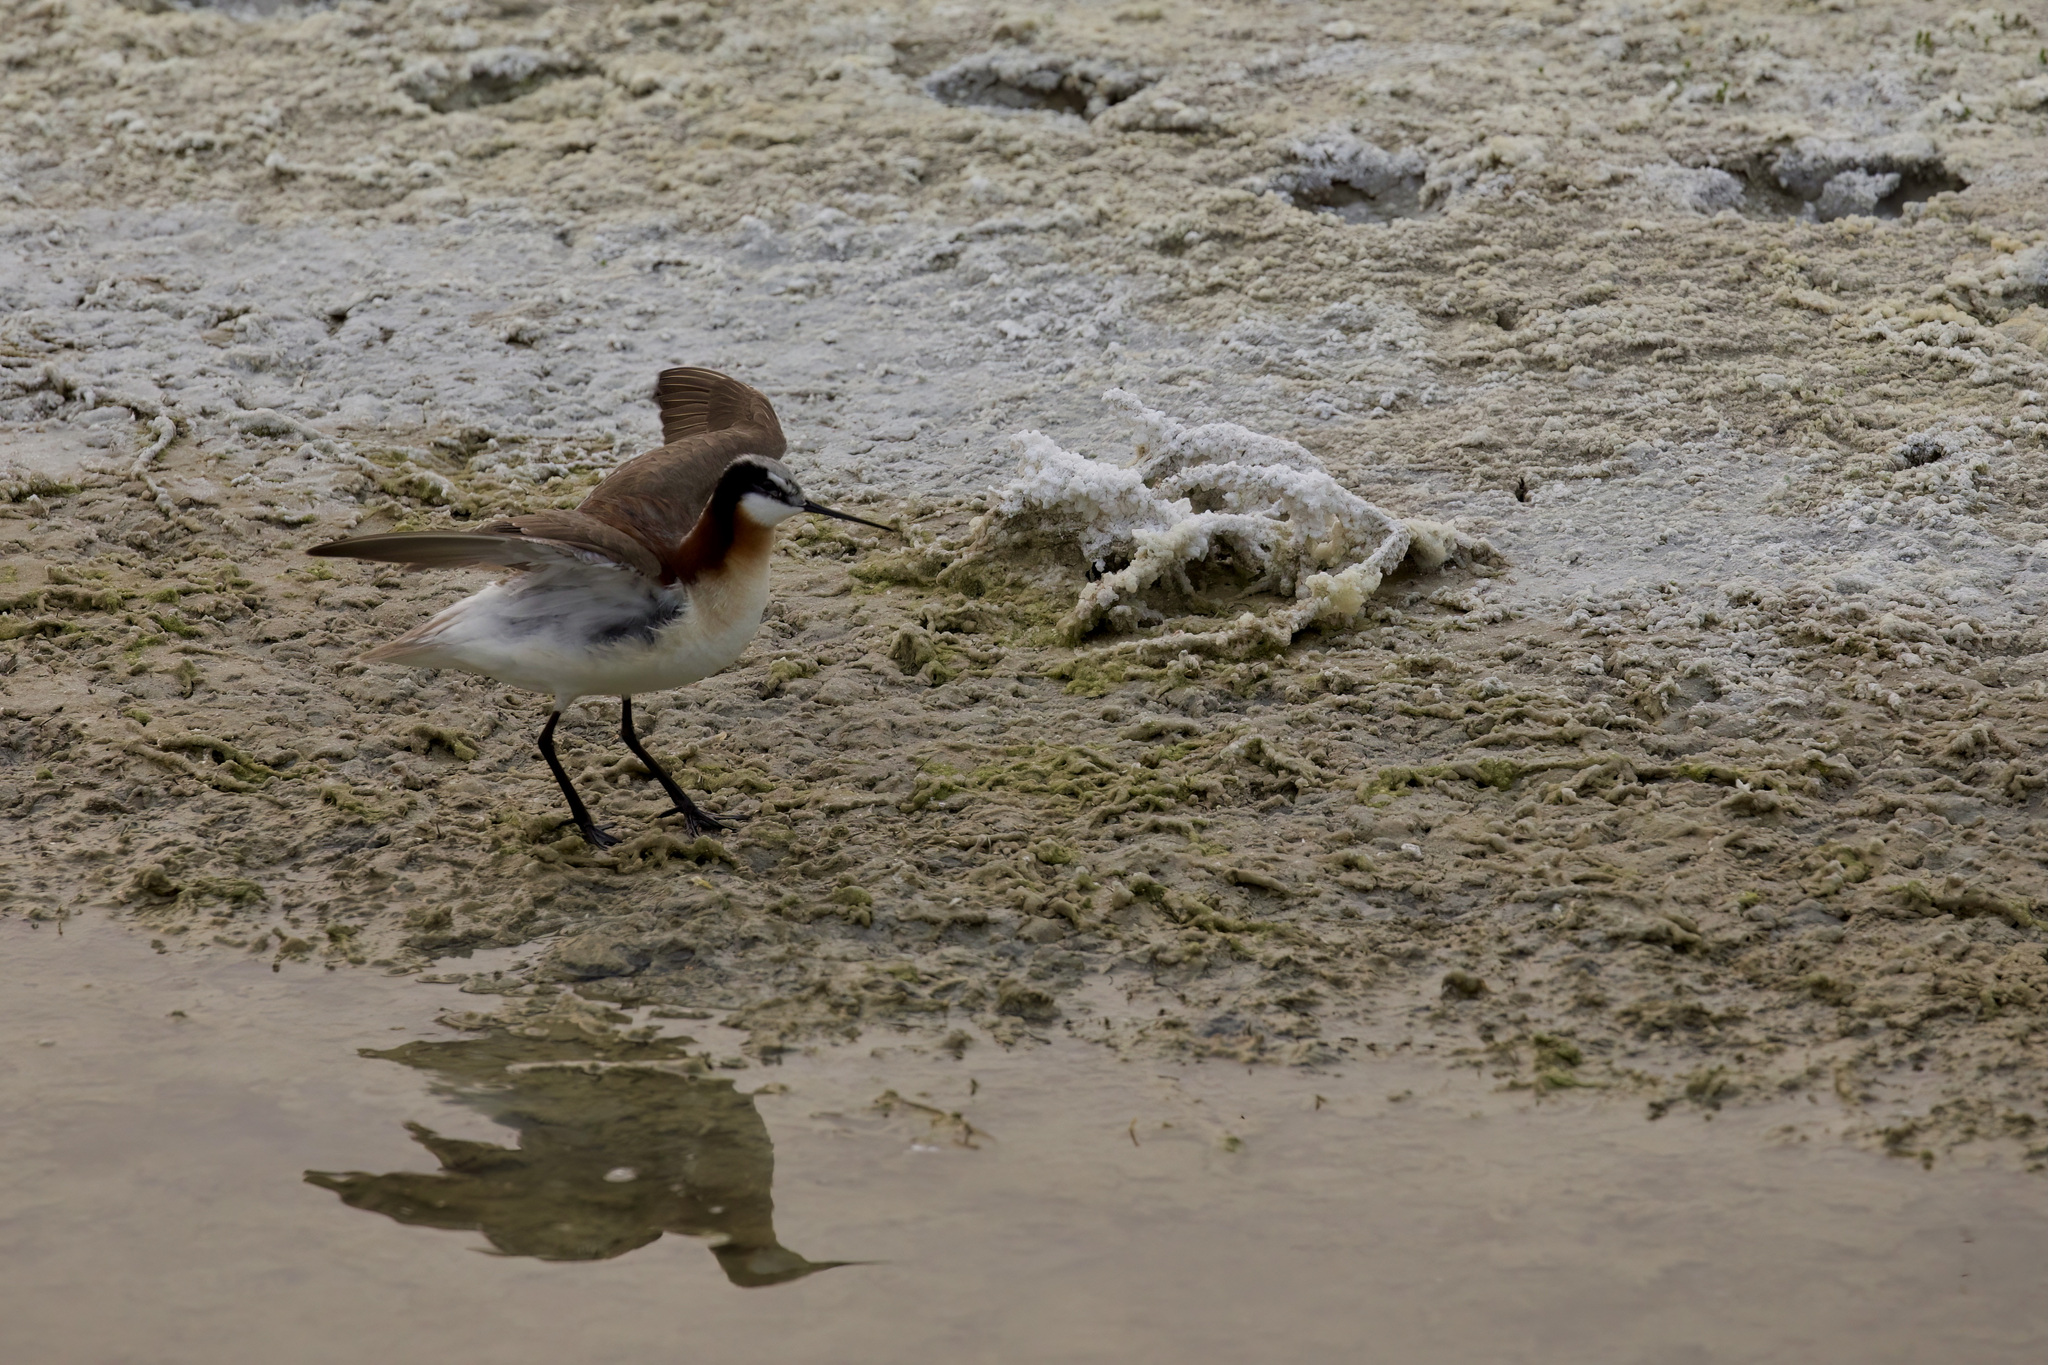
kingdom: Animalia
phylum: Chordata
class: Aves
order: Charadriiformes
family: Scolopacidae
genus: Phalaropus
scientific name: Phalaropus tricolor
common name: Wilson's phalarope
